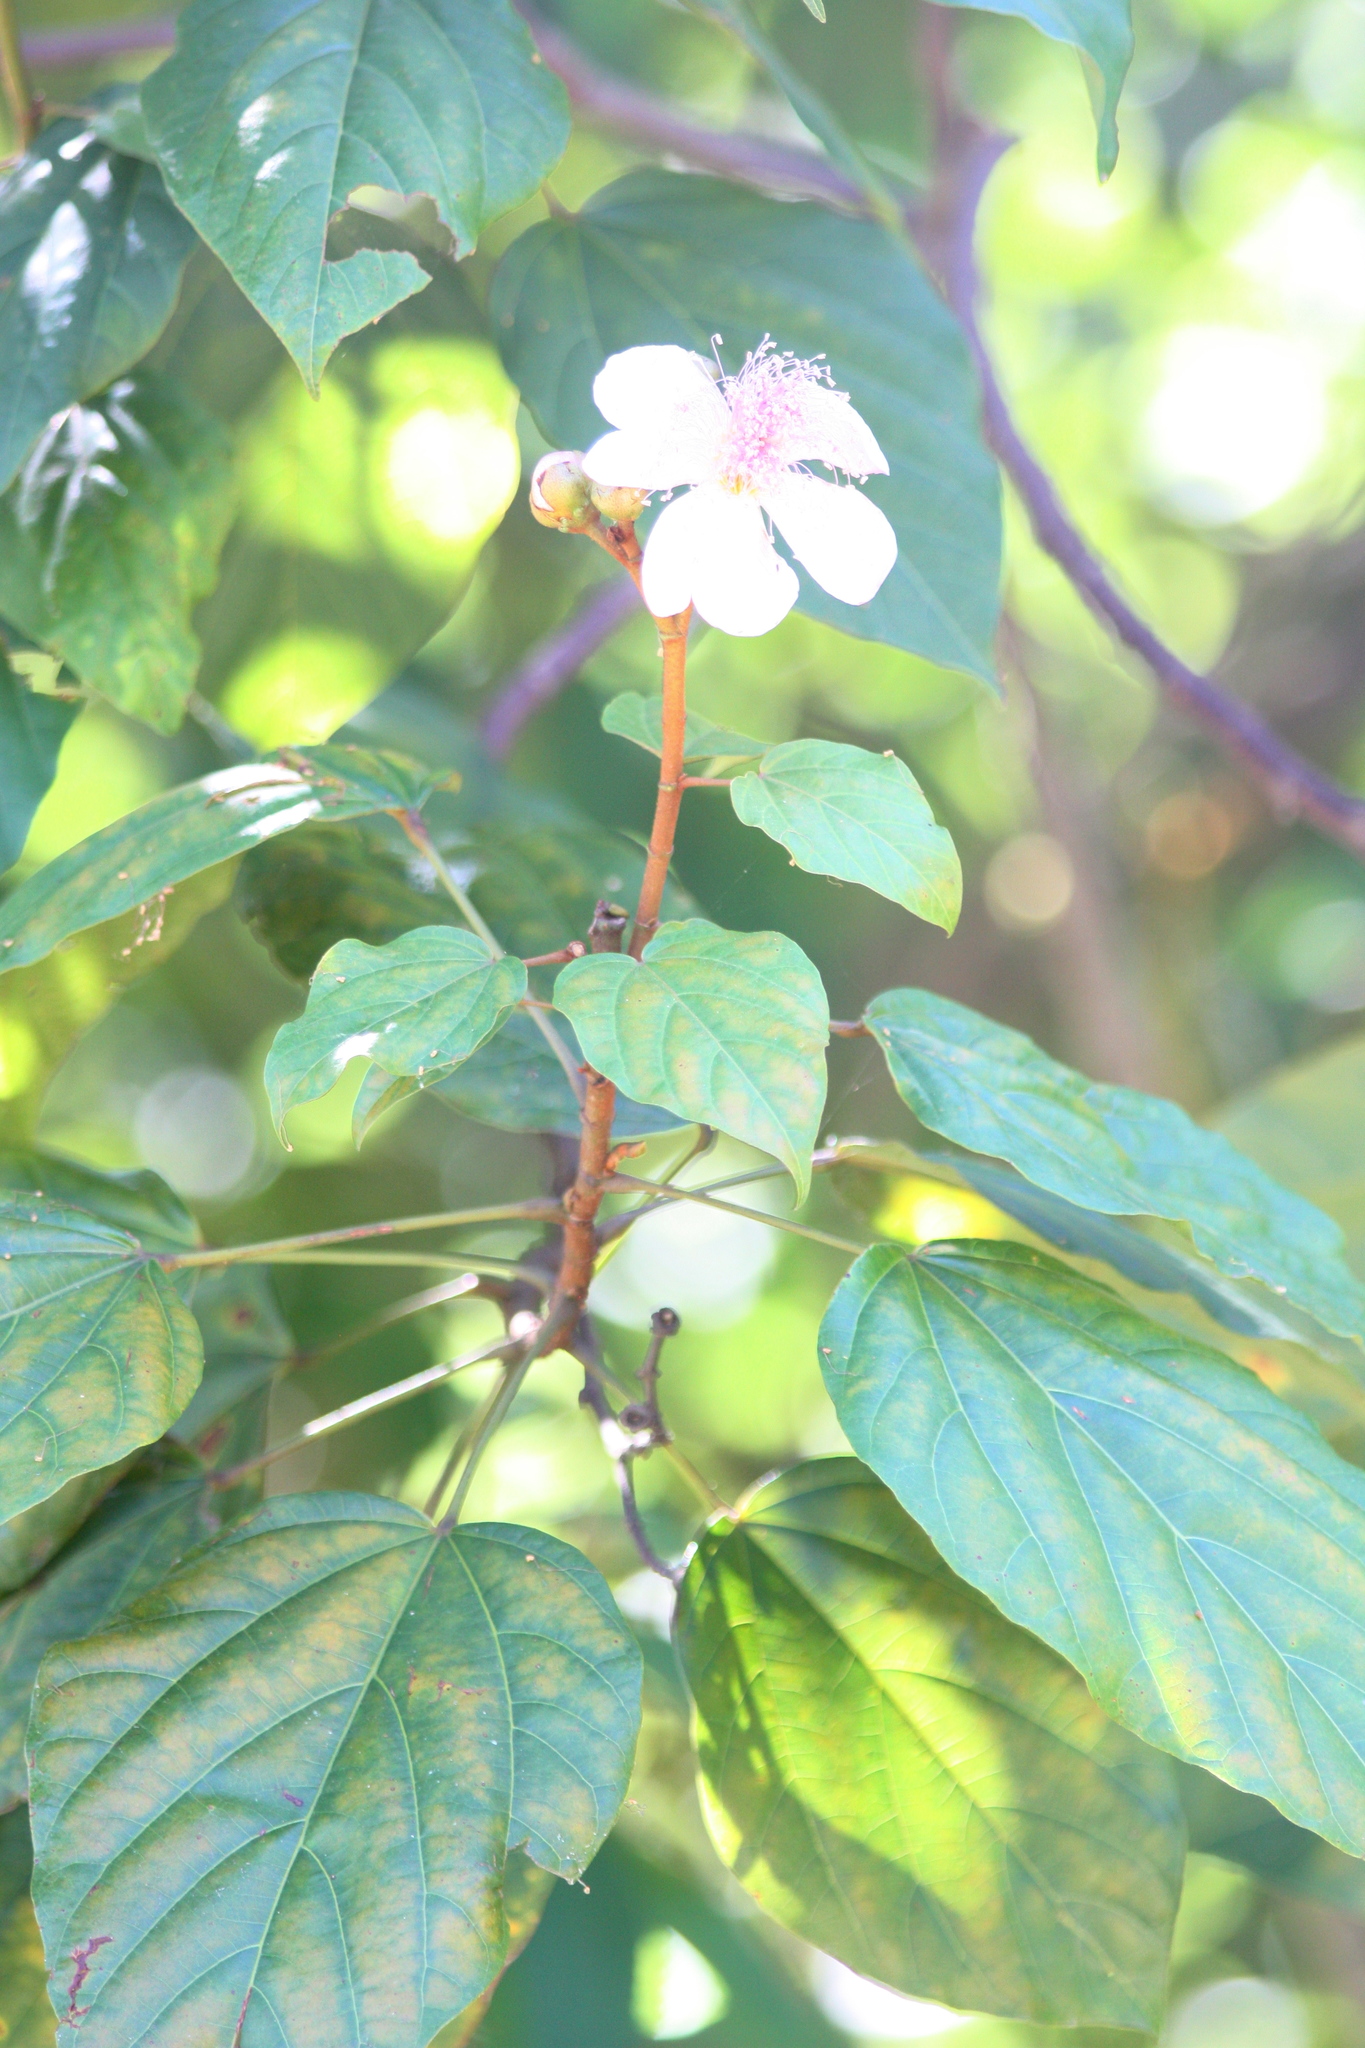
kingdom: Plantae
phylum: Tracheophyta
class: Magnoliopsida
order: Malvales
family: Bixaceae
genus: Bixa
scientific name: Bixa orellana
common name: Lipsticktree
